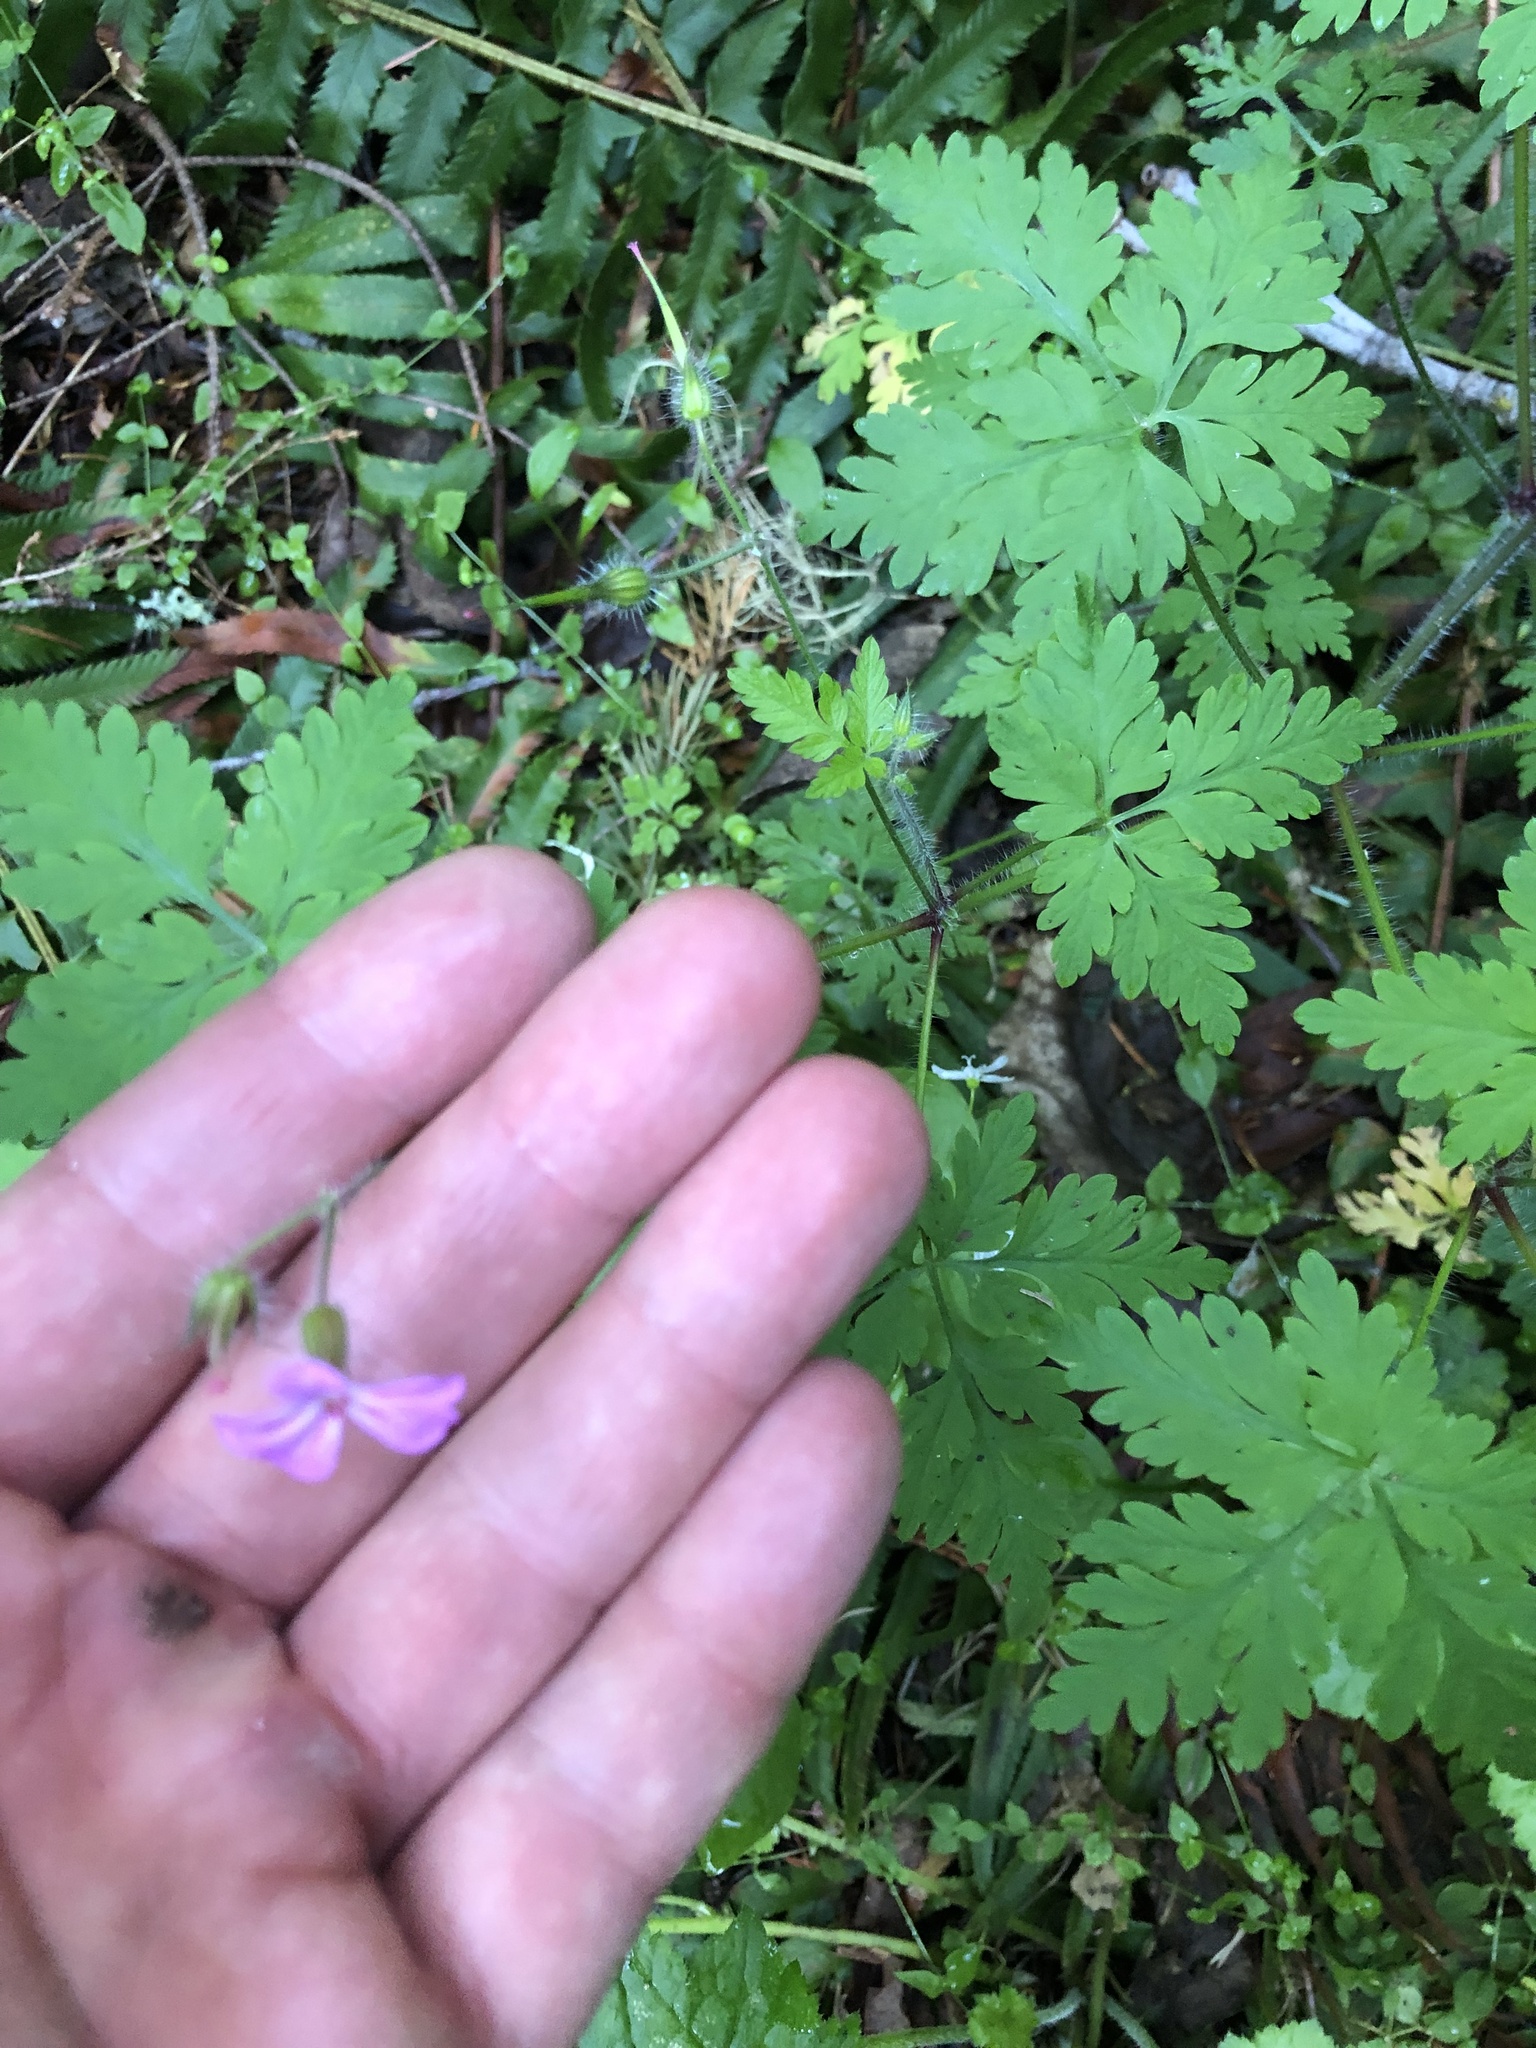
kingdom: Plantae
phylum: Tracheophyta
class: Magnoliopsida
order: Geraniales
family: Geraniaceae
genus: Geranium
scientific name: Geranium robertianum
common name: Herb-robert
